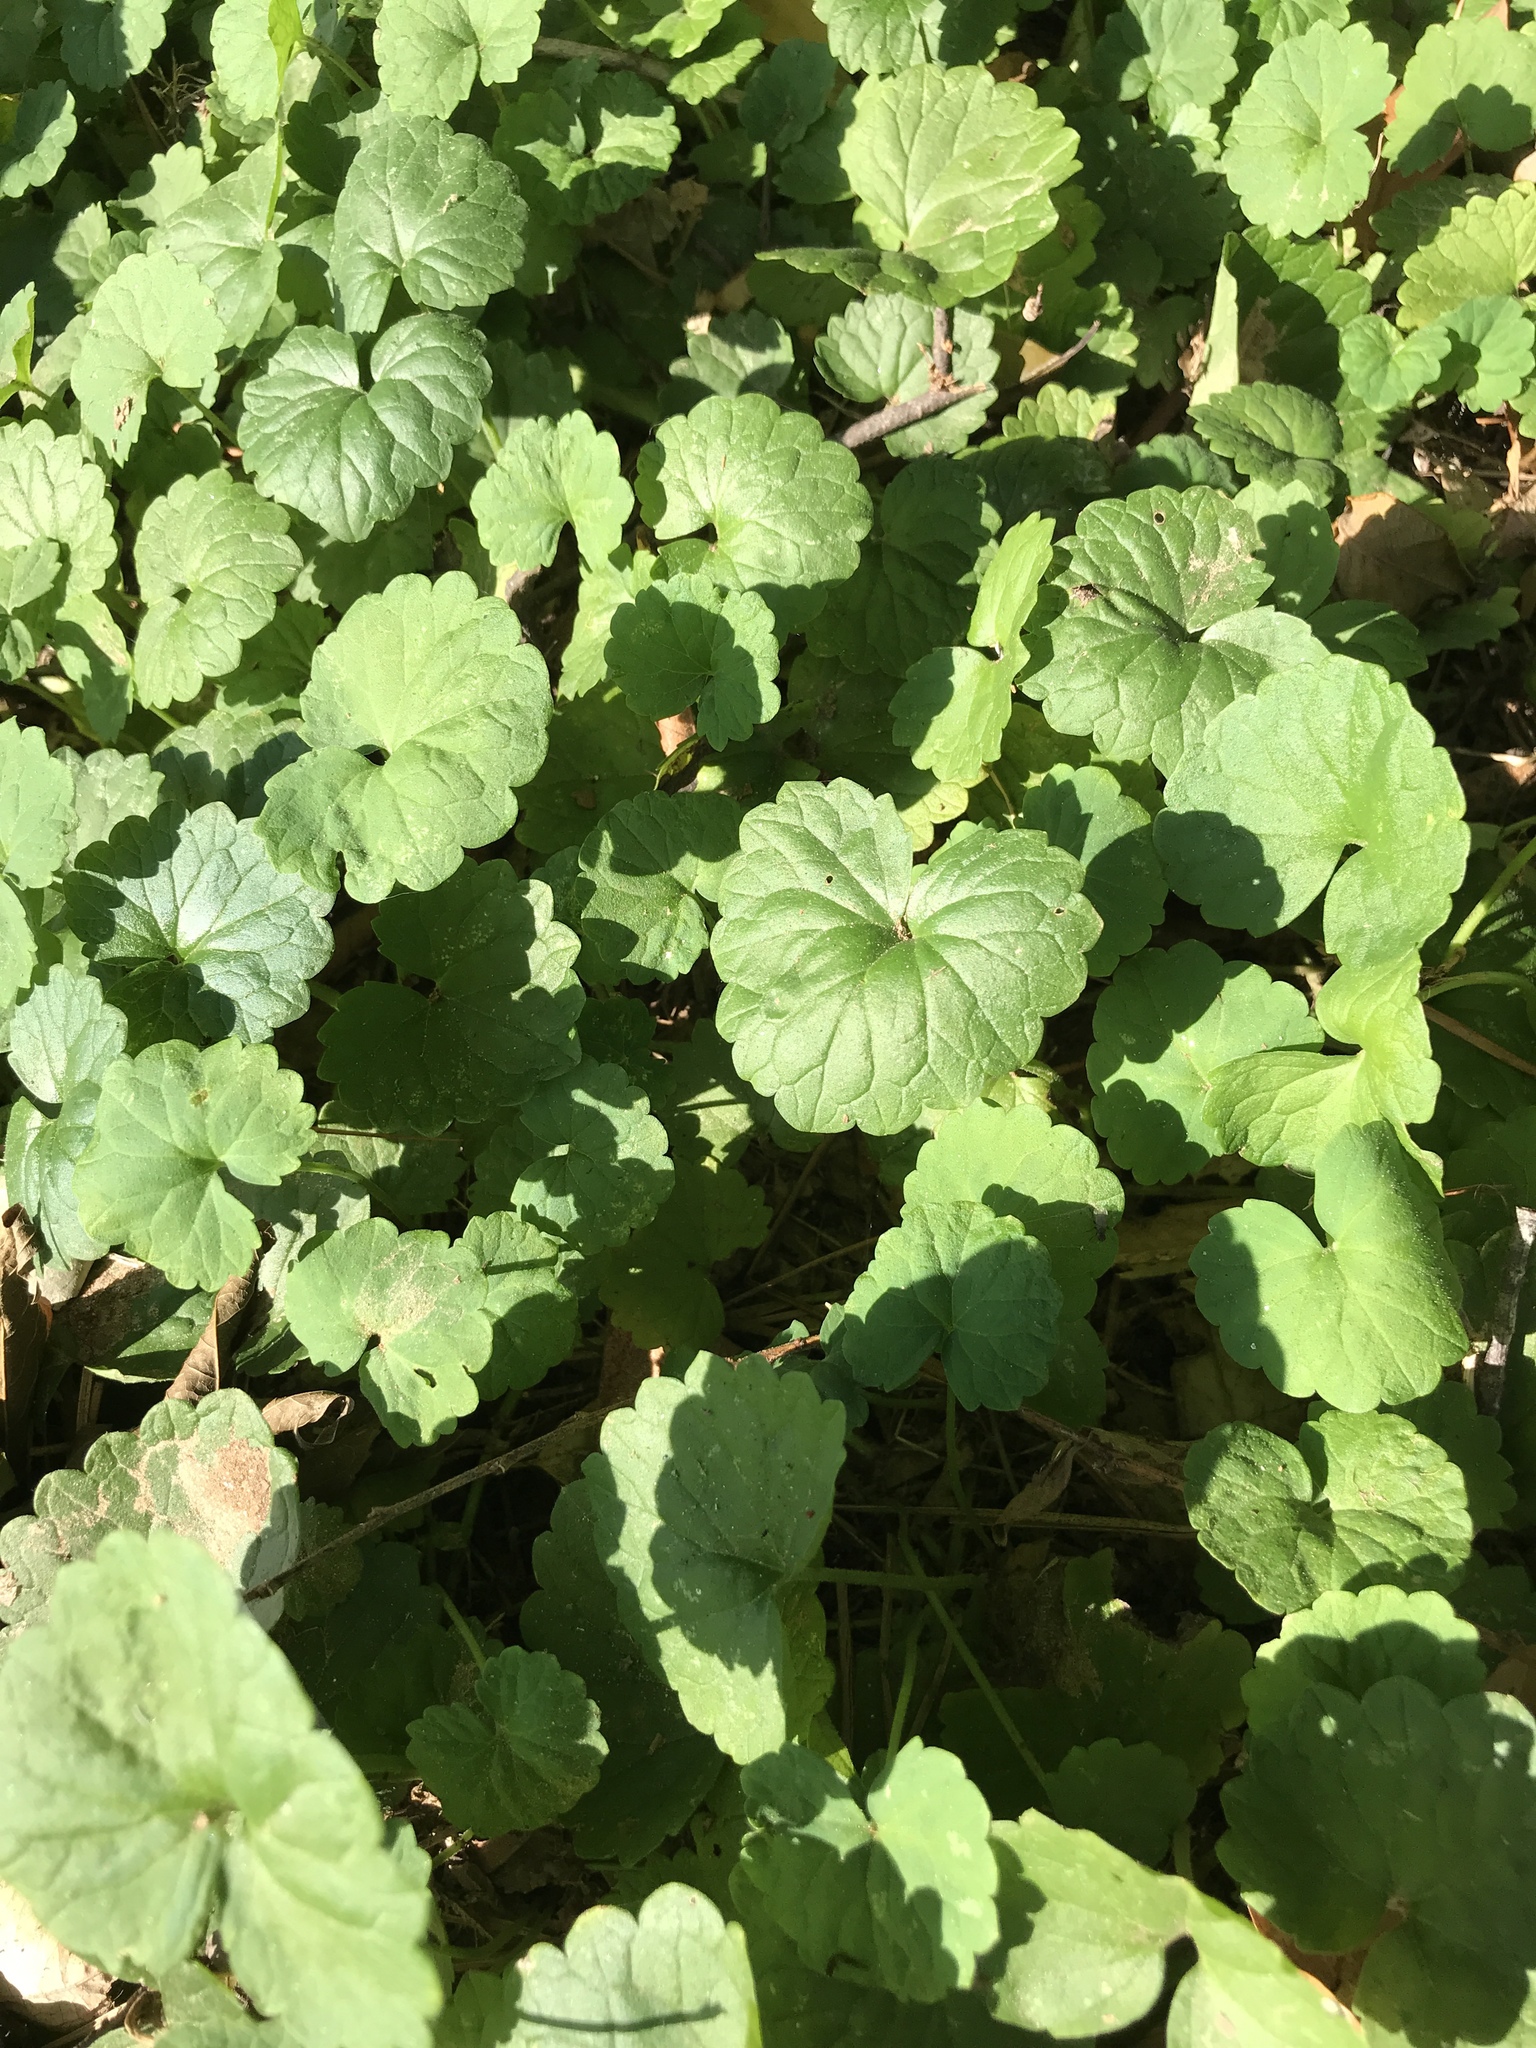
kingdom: Plantae
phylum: Tracheophyta
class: Magnoliopsida
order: Lamiales
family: Lamiaceae
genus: Glechoma
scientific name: Glechoma hederacea
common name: Ground ivy
